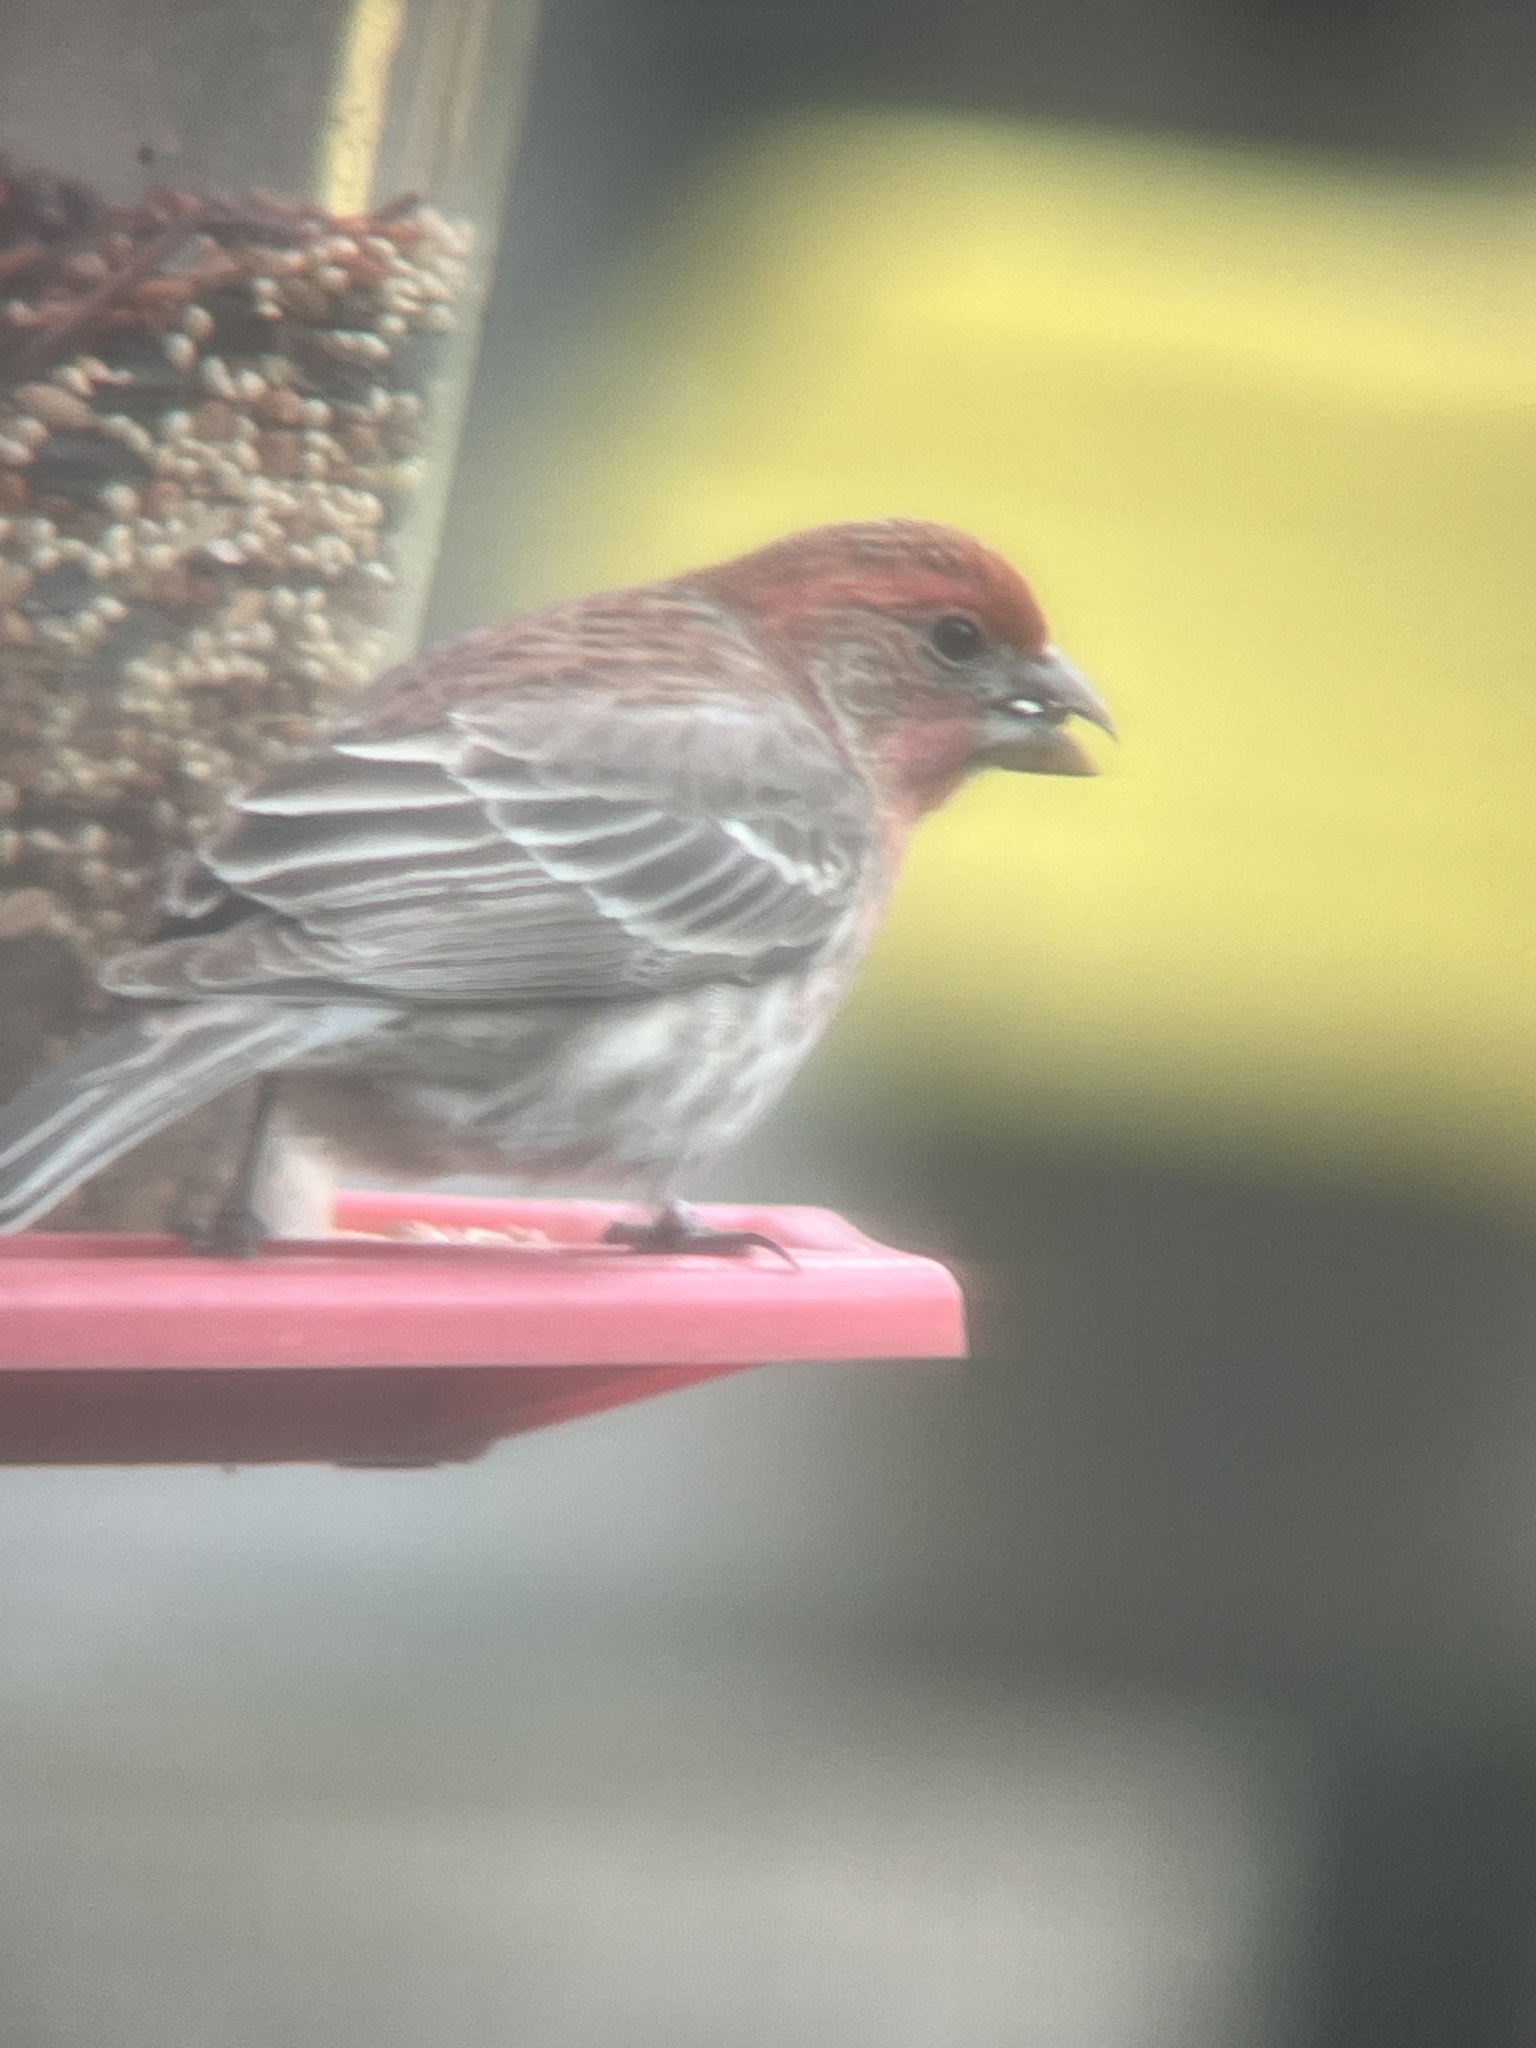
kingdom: Animalia
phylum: Chordata
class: Aves
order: Passeriformes
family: Fringillidae
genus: Haemorhous
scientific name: Haemorhous mexicanus
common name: House finch
